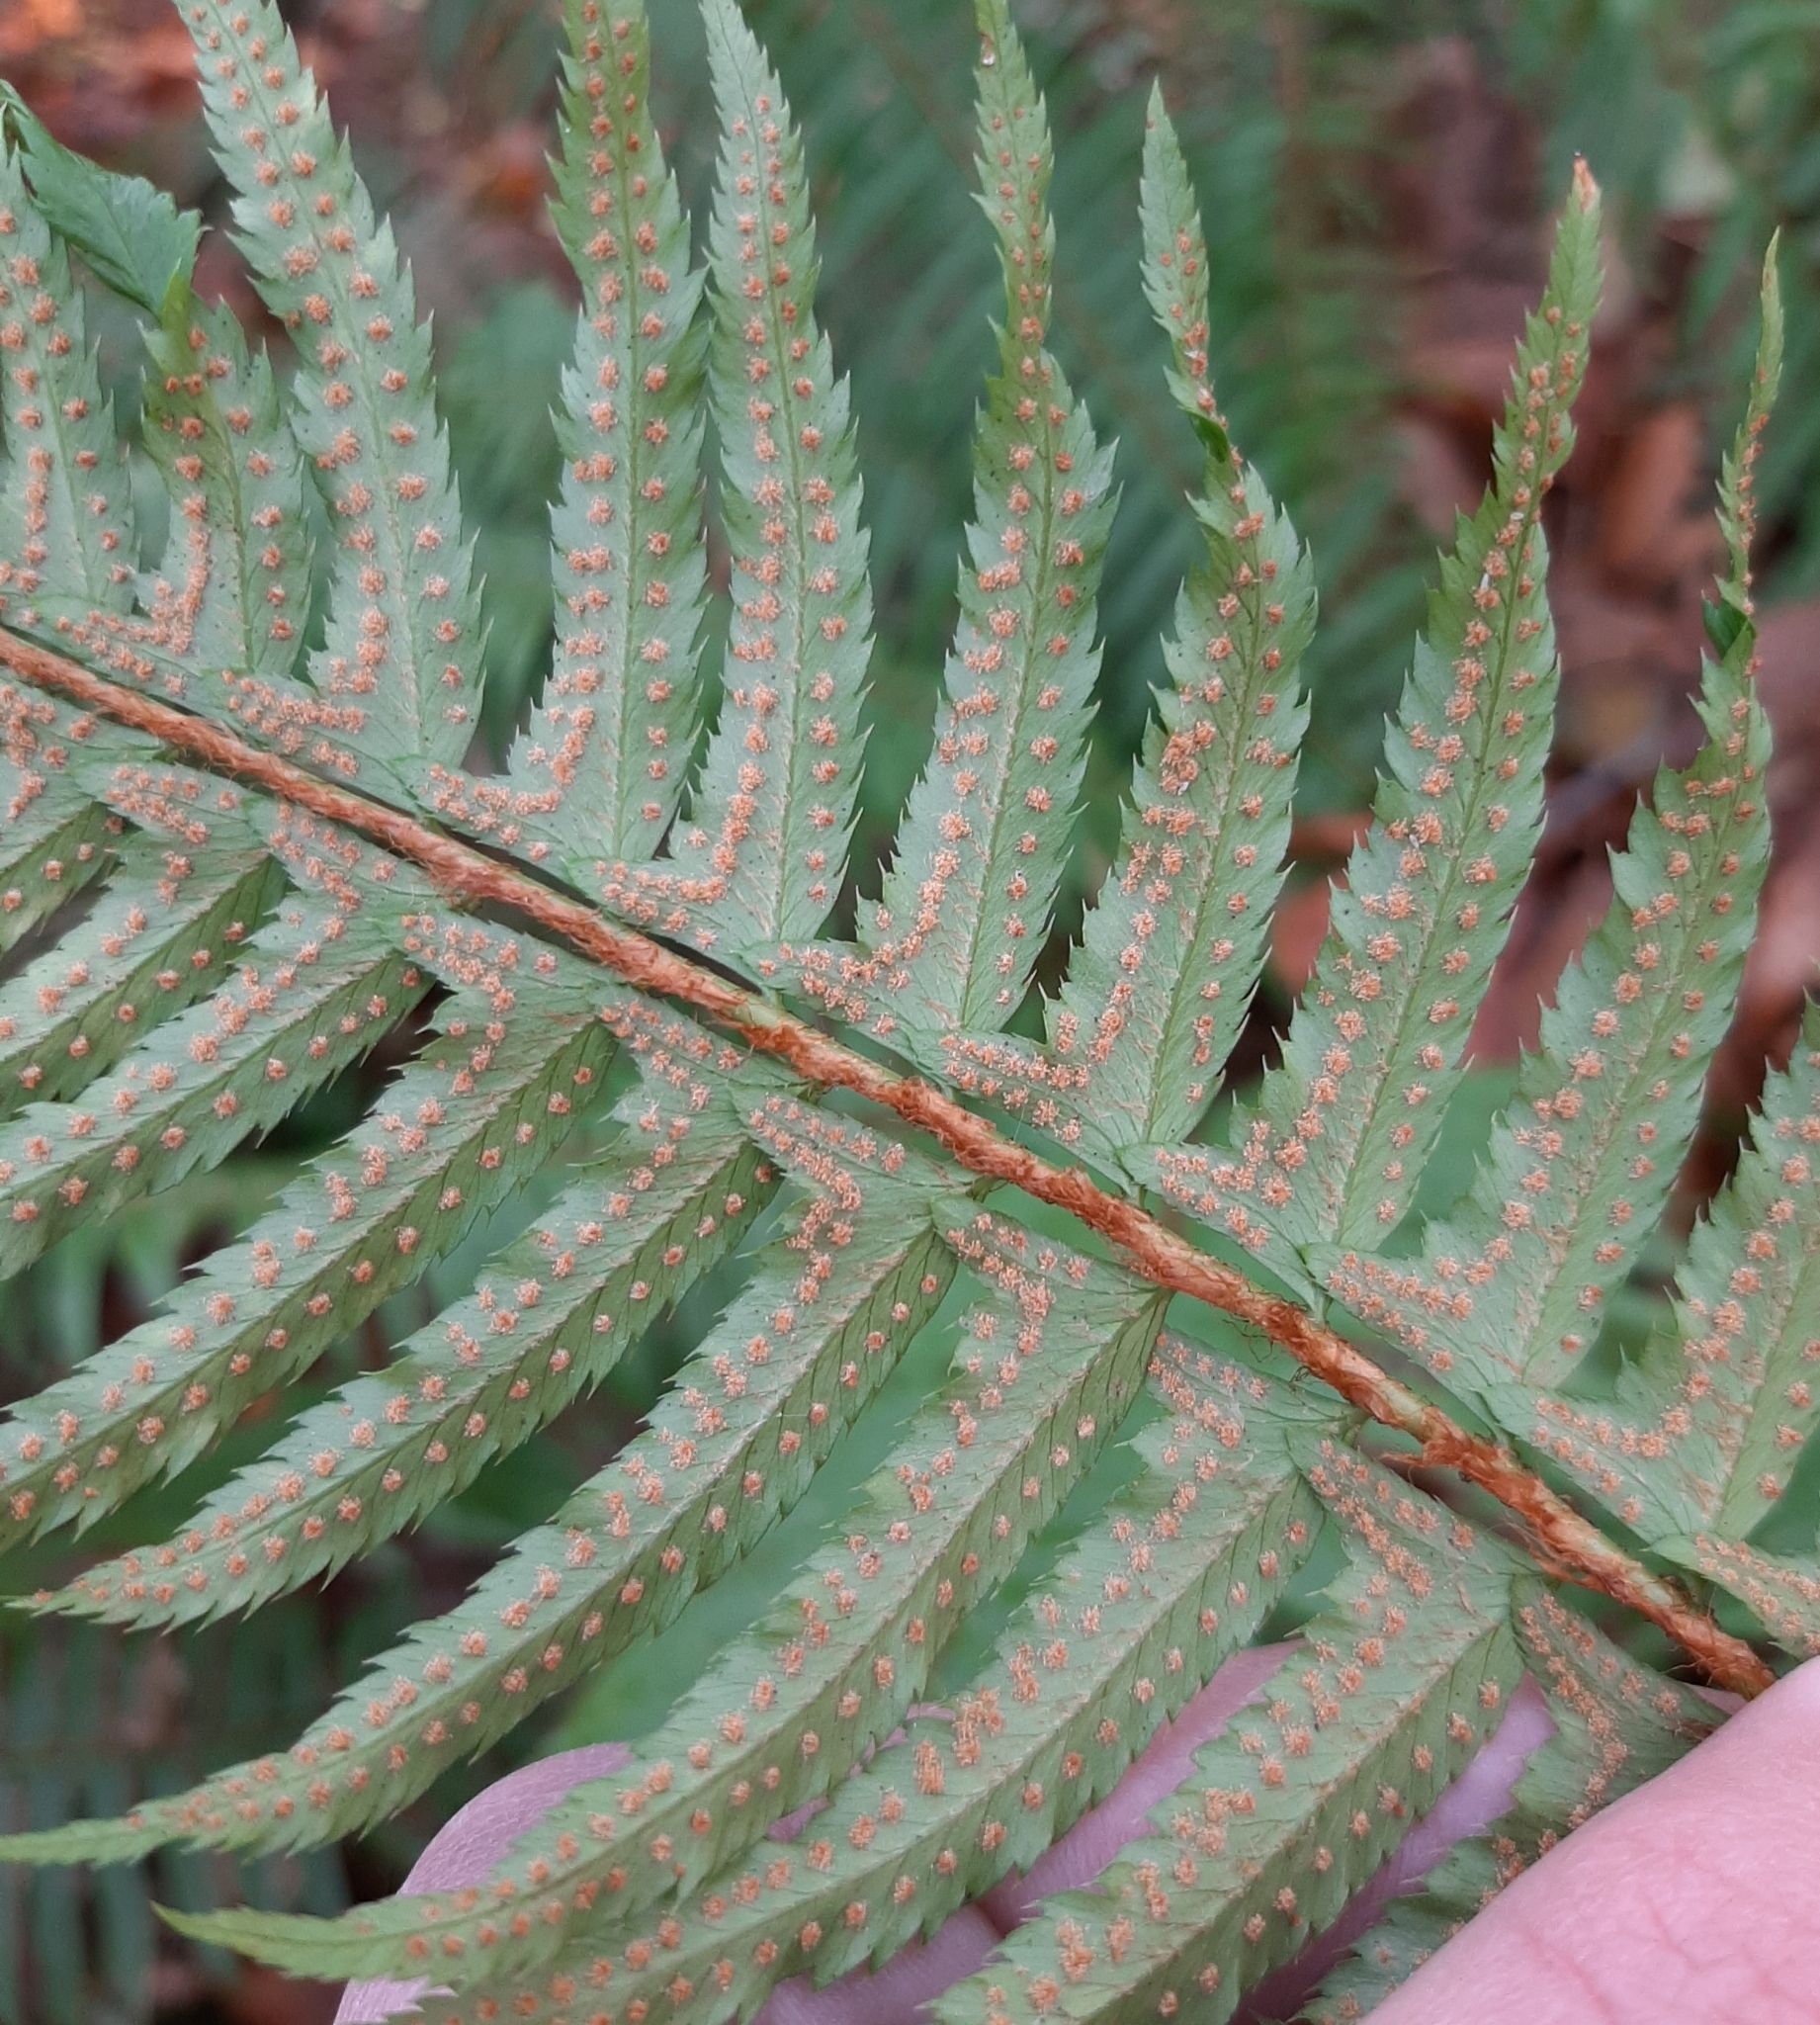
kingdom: Plantae
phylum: Tracheophyta
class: Polypodiopsida
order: Polypodiales
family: Dryopteridaceae
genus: Polystichum
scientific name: Polystichum munitum
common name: Western sword-fern
